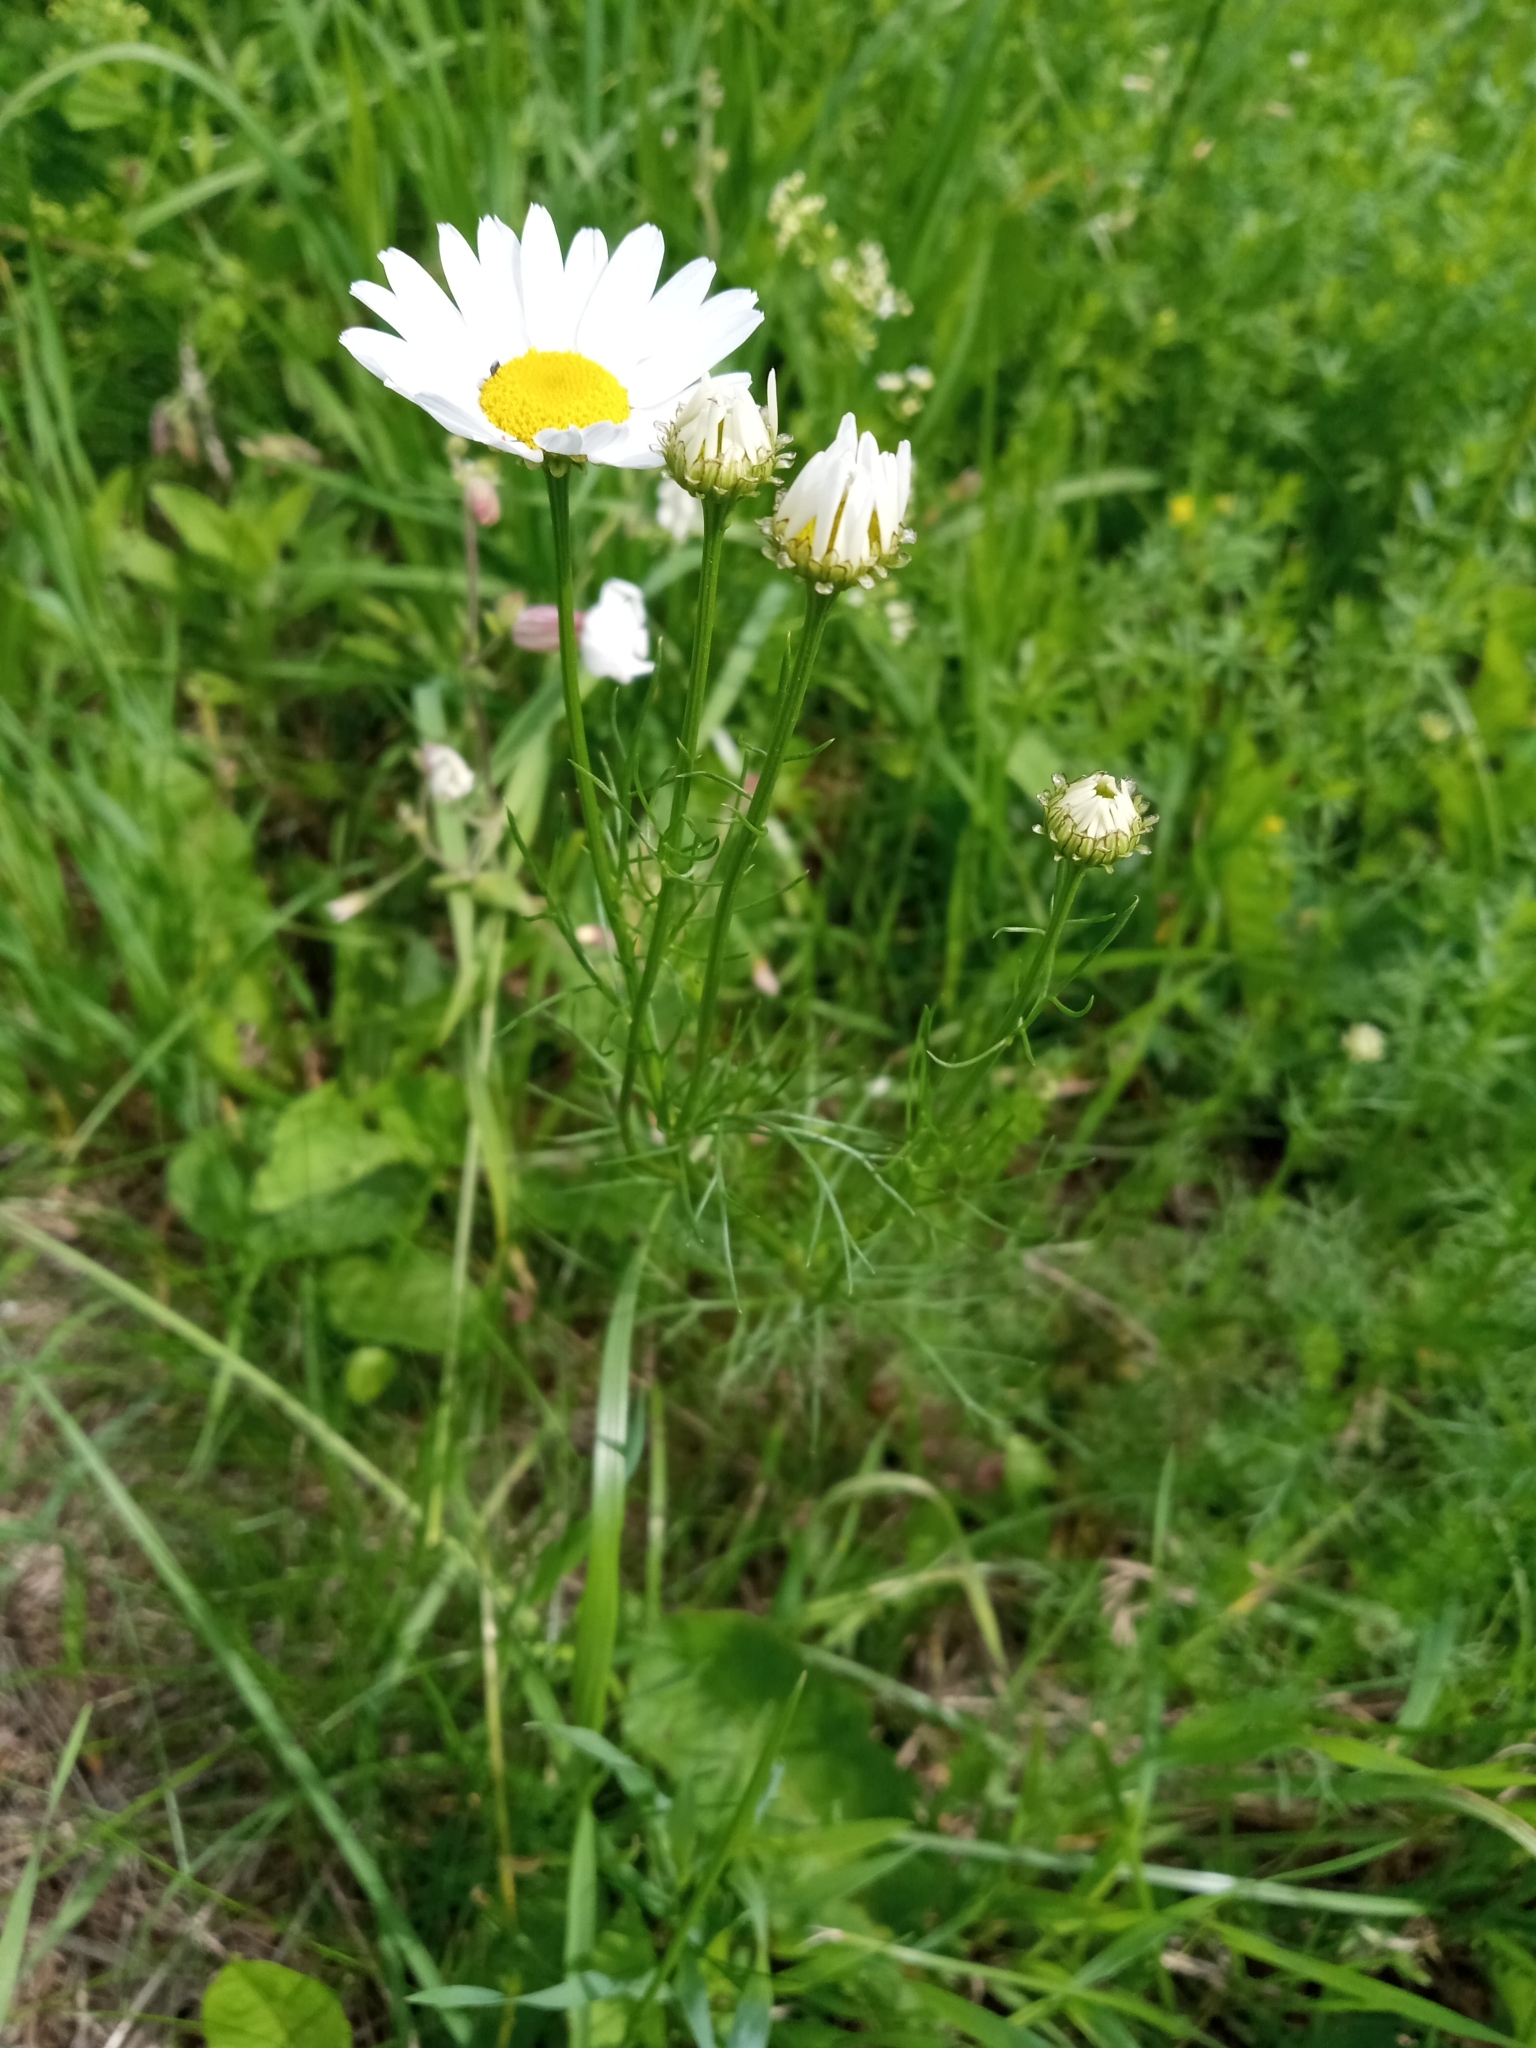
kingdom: Plantae
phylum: Tracheophyta
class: Magnoliopsida
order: Asterales
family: Asteraceae
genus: Tripleurospermum
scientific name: Tripleurospermum inodorum
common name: Scentless mayweed
